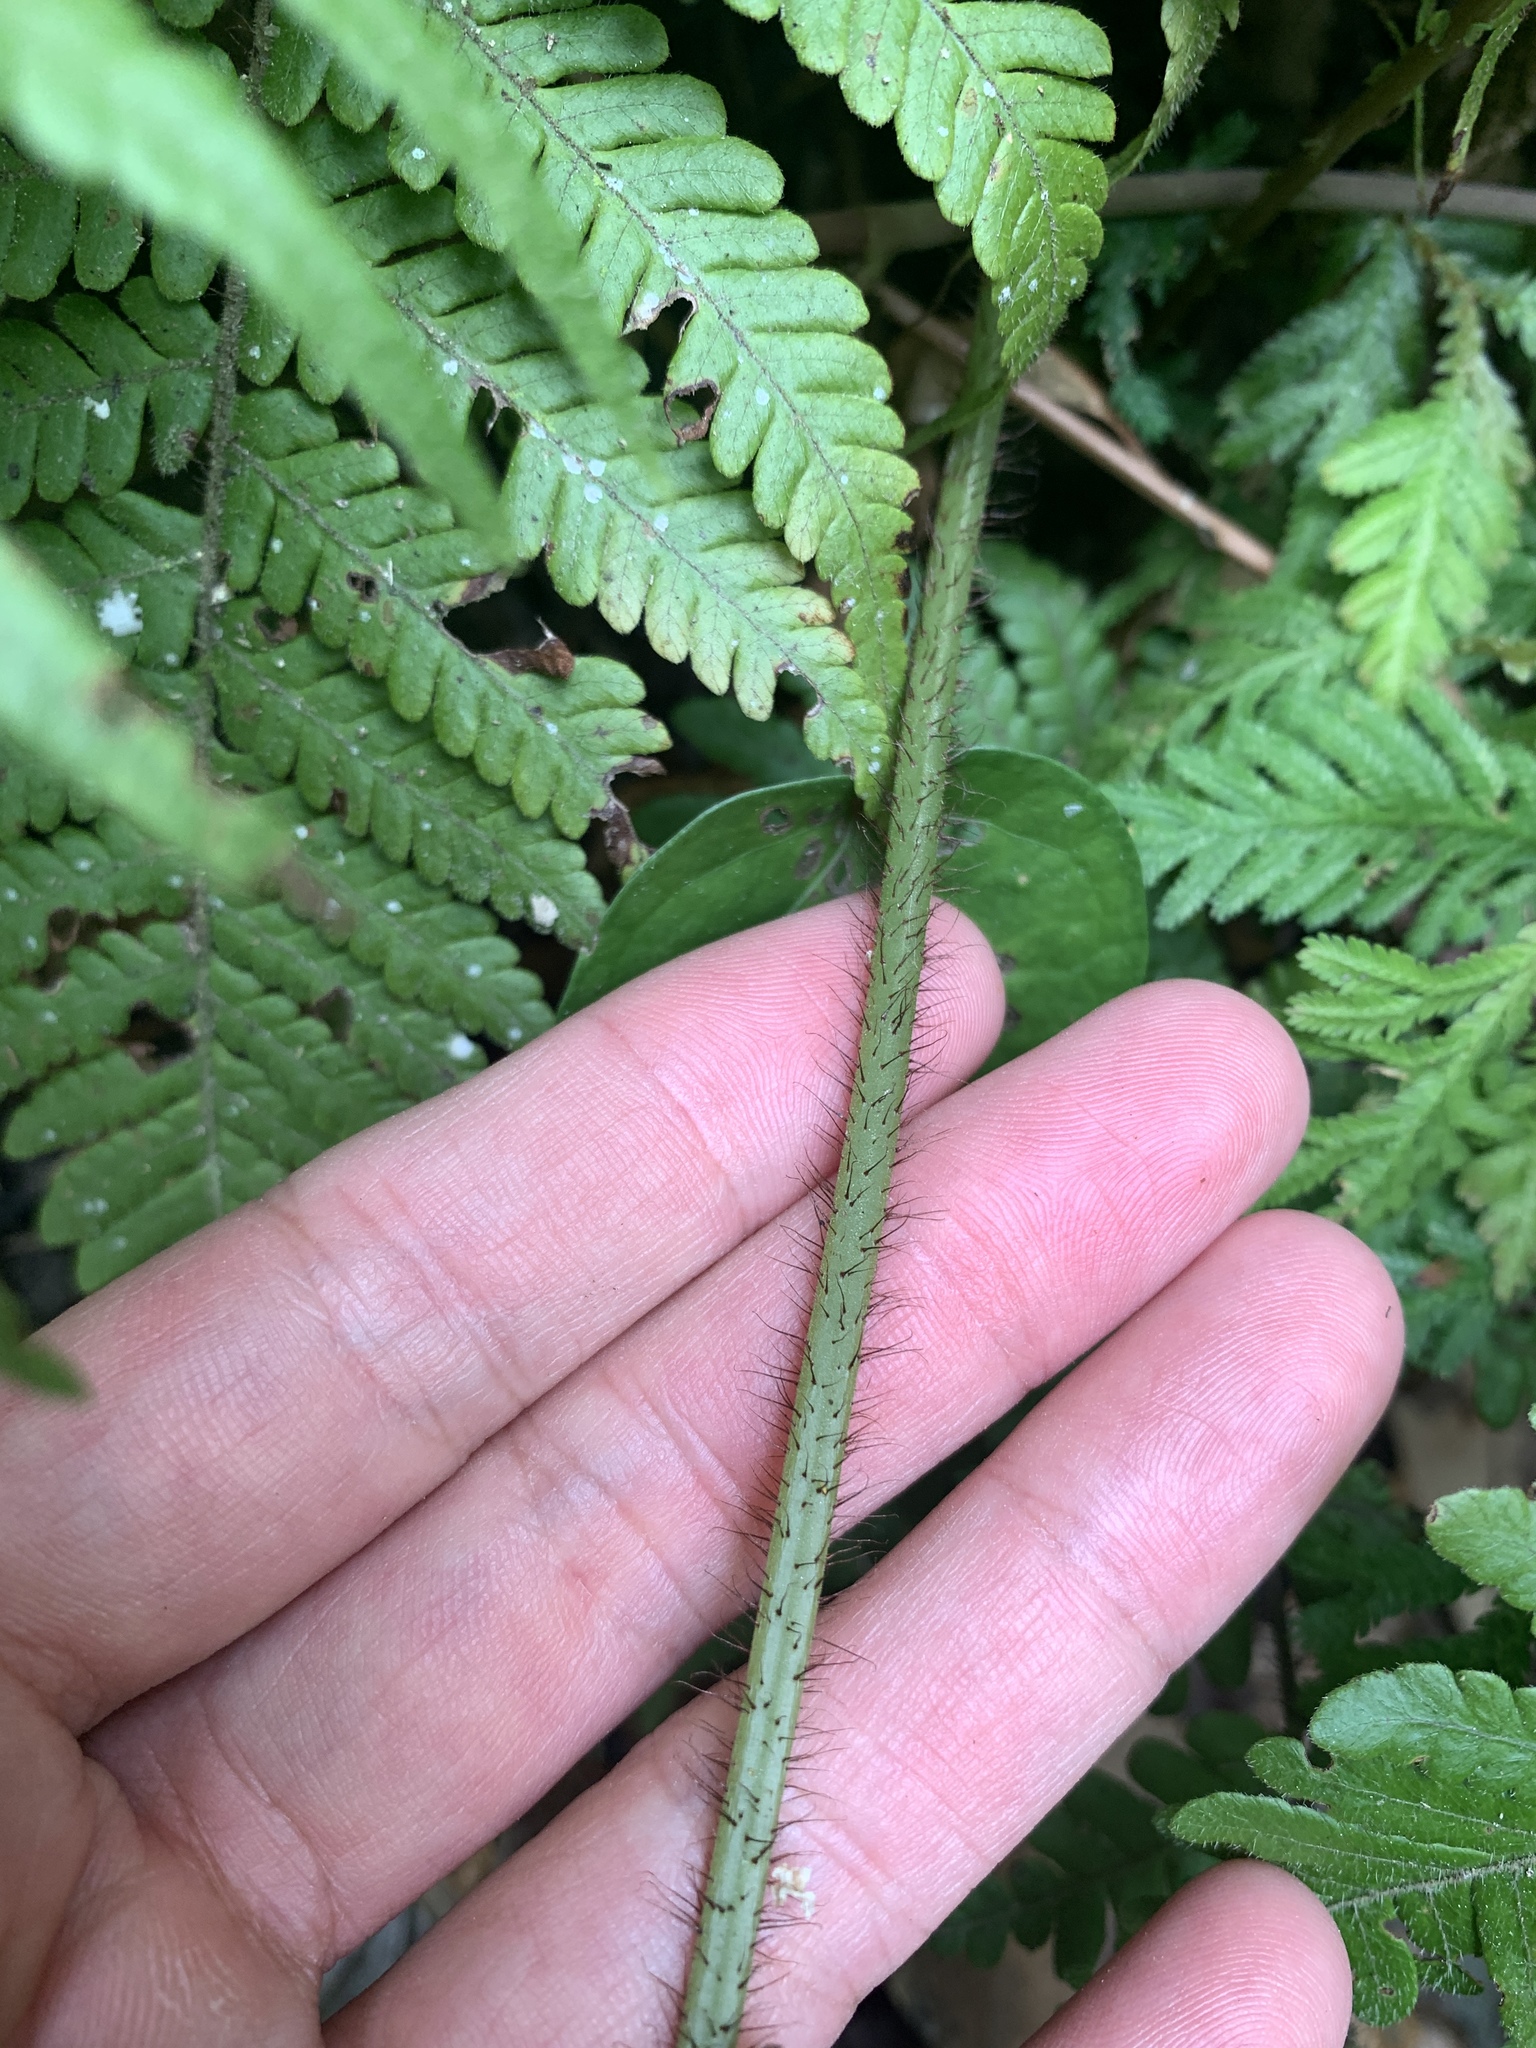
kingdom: Plantae
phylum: Tracheophyta
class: Polypodiopsida
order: Polypodiales
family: Dryopteridaceae
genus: Ctenitis
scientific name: Ctenitis eatonii
